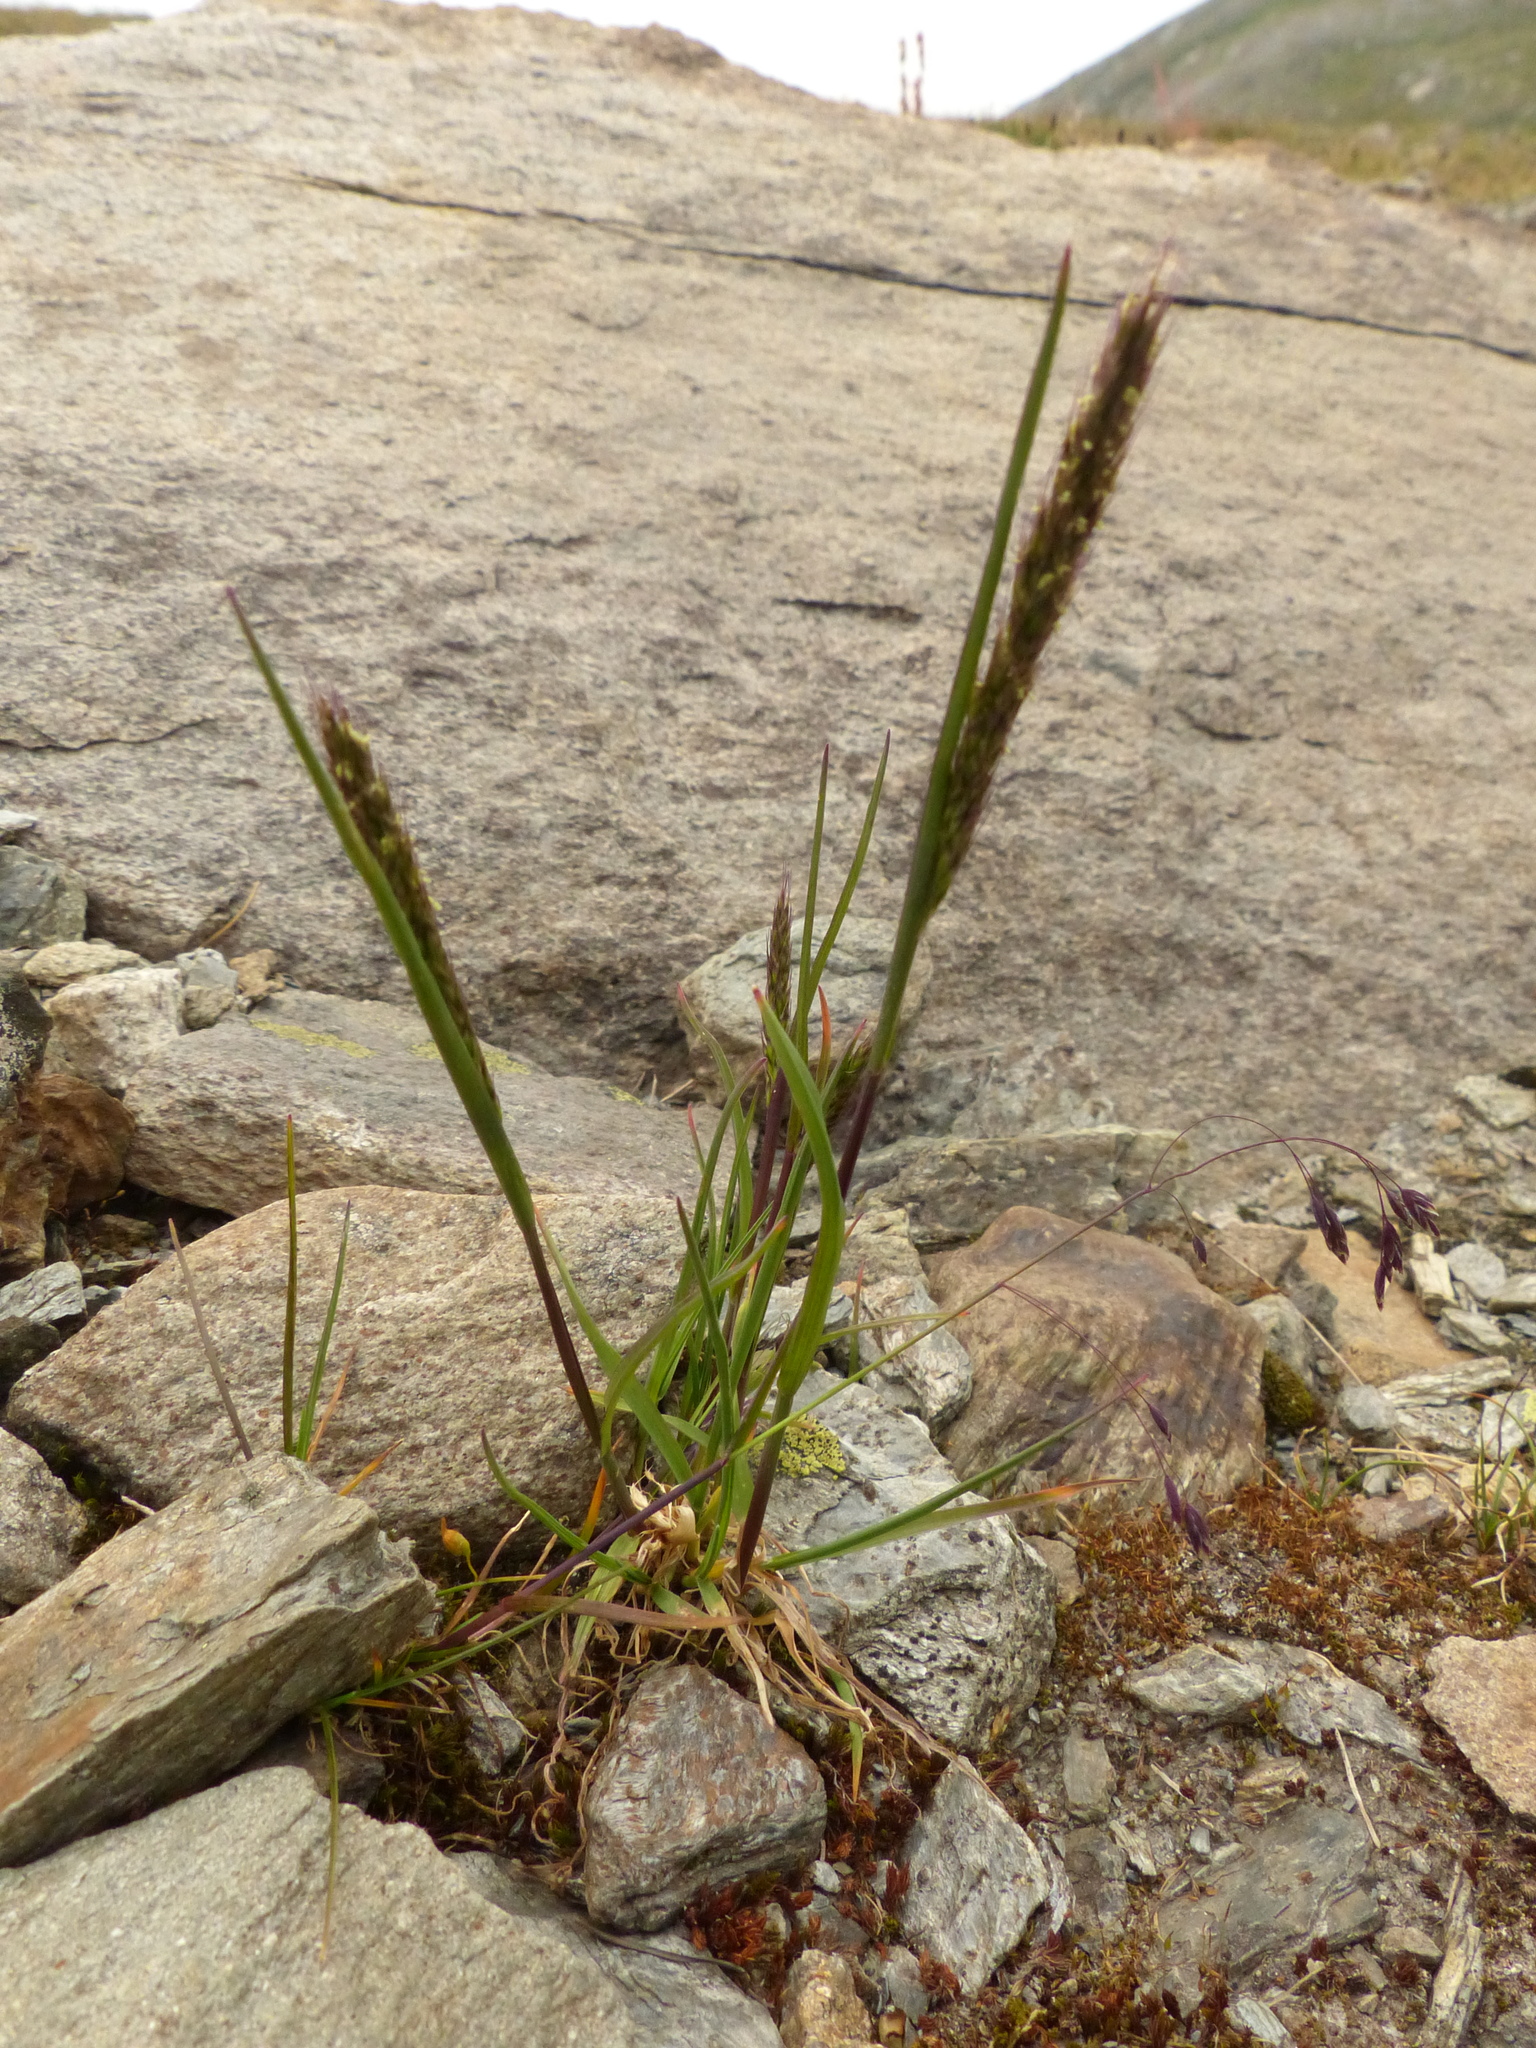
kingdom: Plantae
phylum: Tracheophyta
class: Liliopsida
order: Poales
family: Poaceae
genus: Koeleria
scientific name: Koeleria spicata
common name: Mountain trisetum
